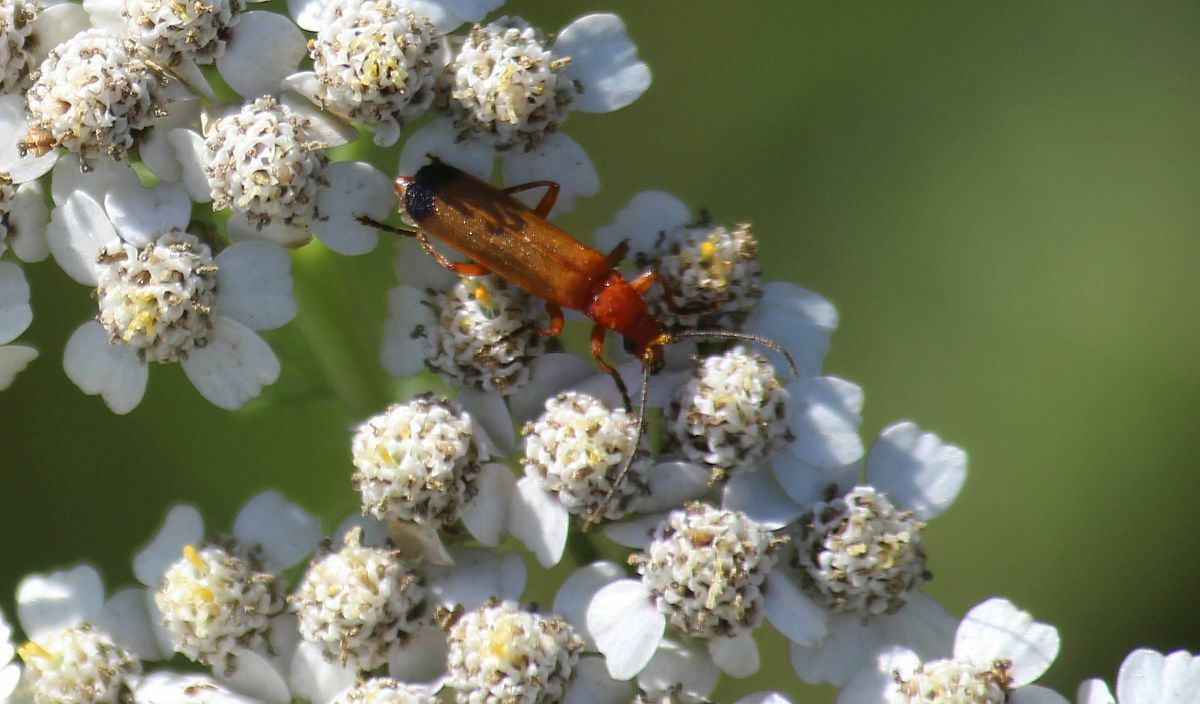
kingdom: Animalia
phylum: Arthropoda
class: Insecta
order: Coleoptera
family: Cantharidae
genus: Rhagonycha
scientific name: Rhagonycha fulva
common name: Common red soldier beetle
